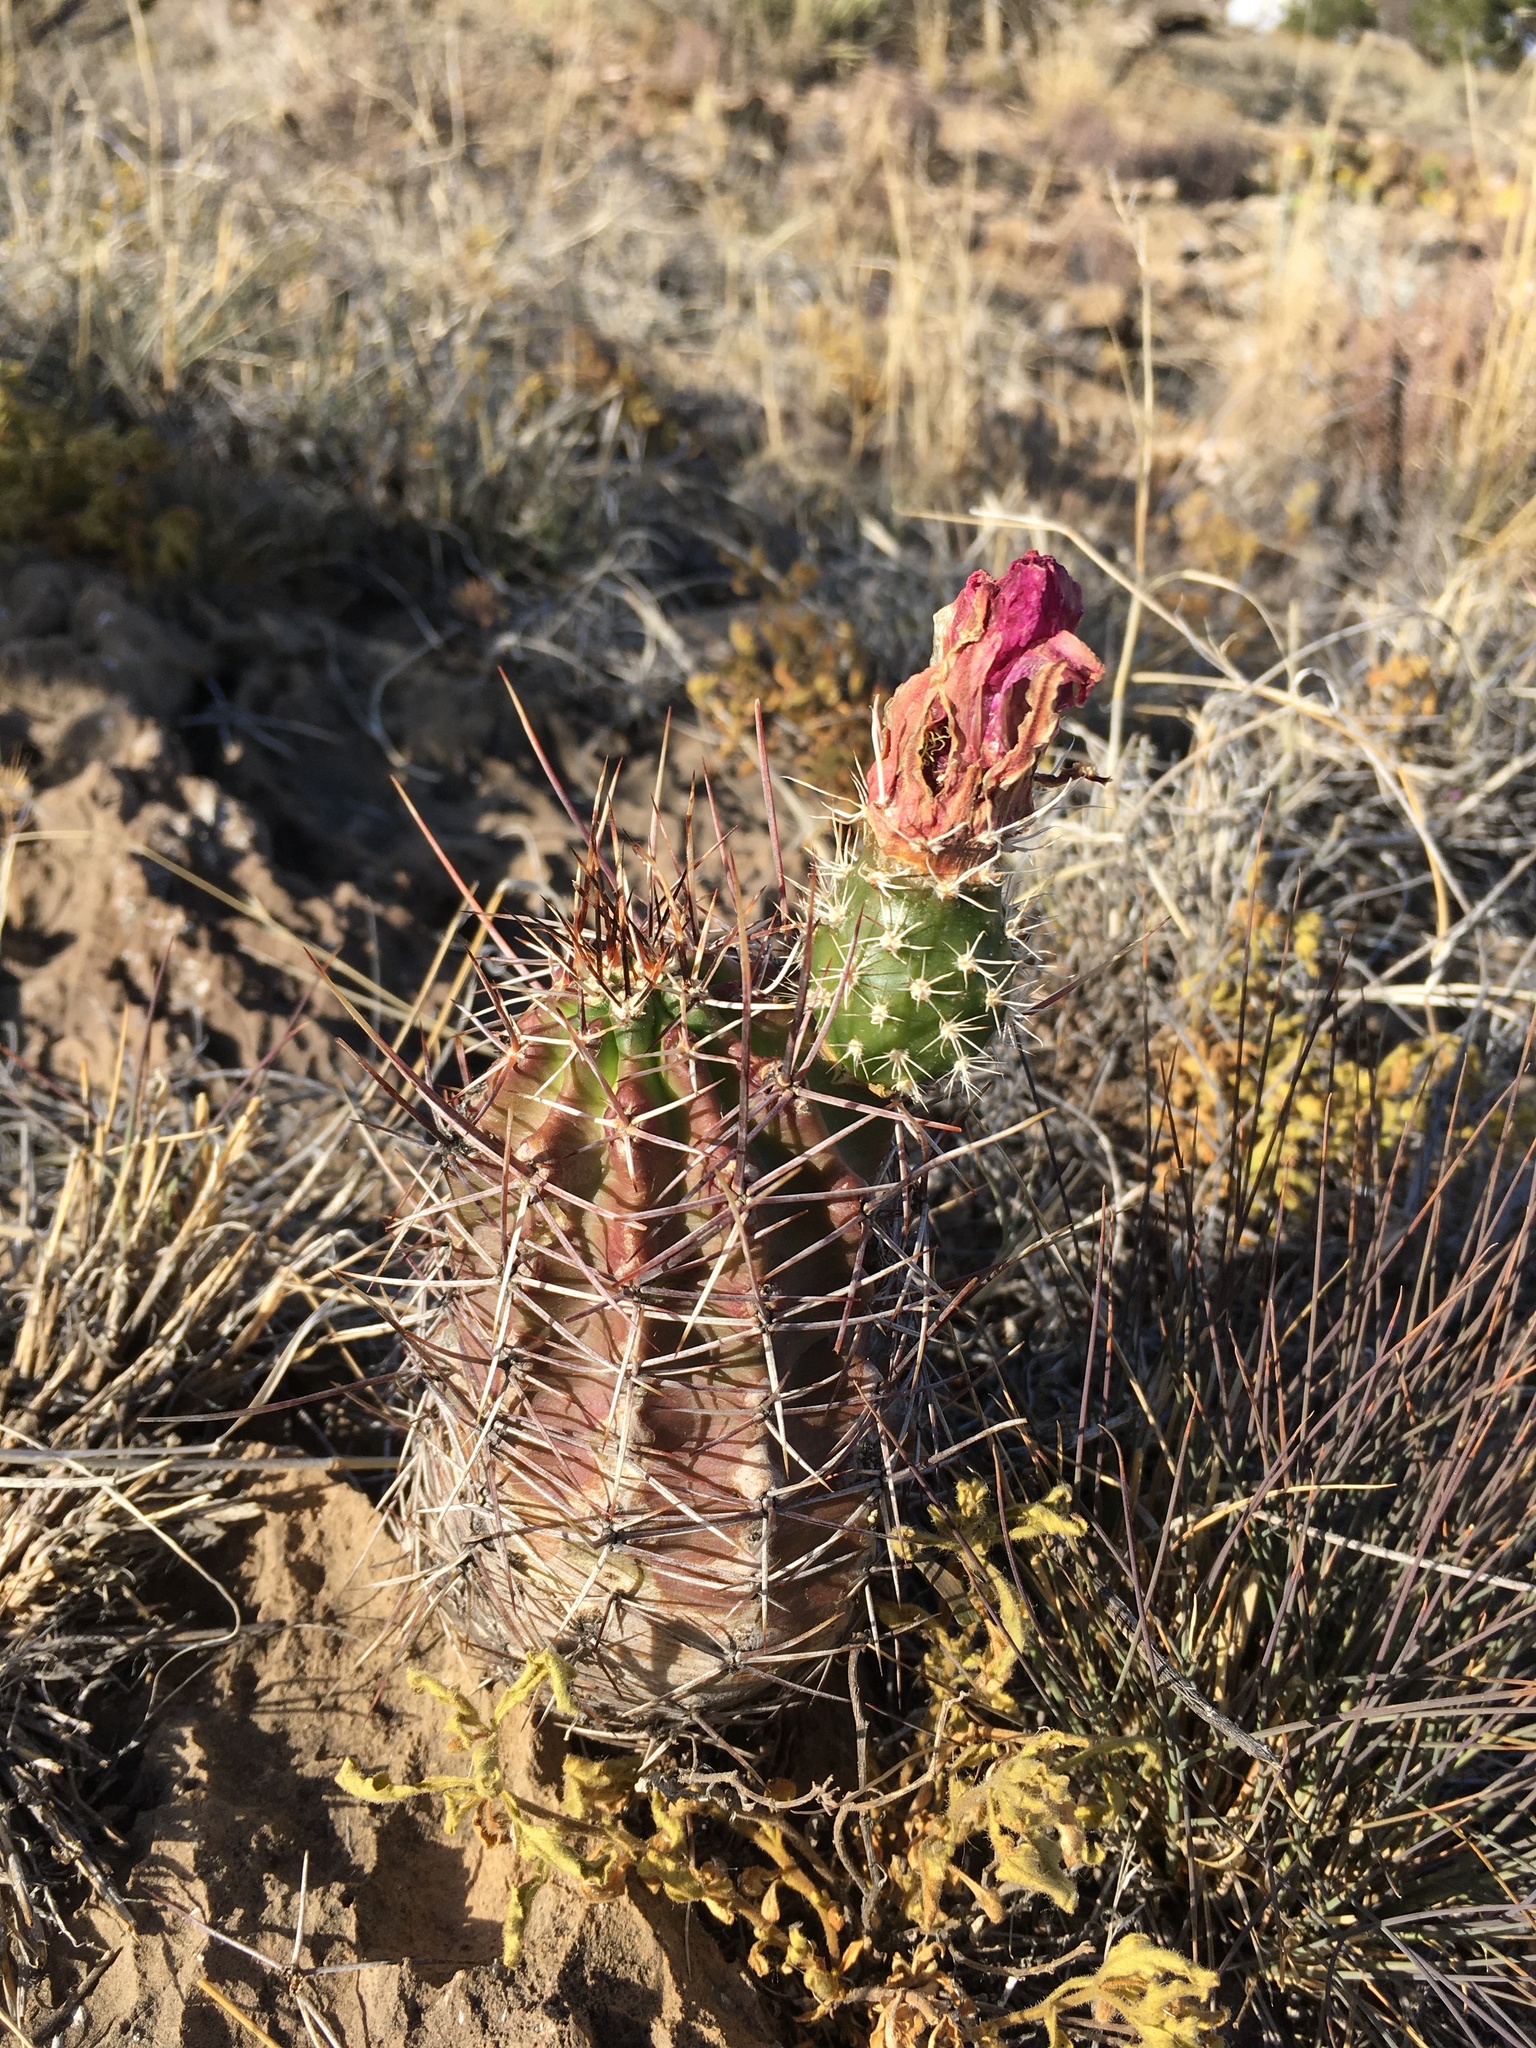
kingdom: Plantae
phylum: Tracheophyta
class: Magnoliopsida
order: Caryophyllales
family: Cactaceae
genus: Echinocereus
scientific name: Echinocereus fendleri
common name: Fendler's hedgehog cactus
